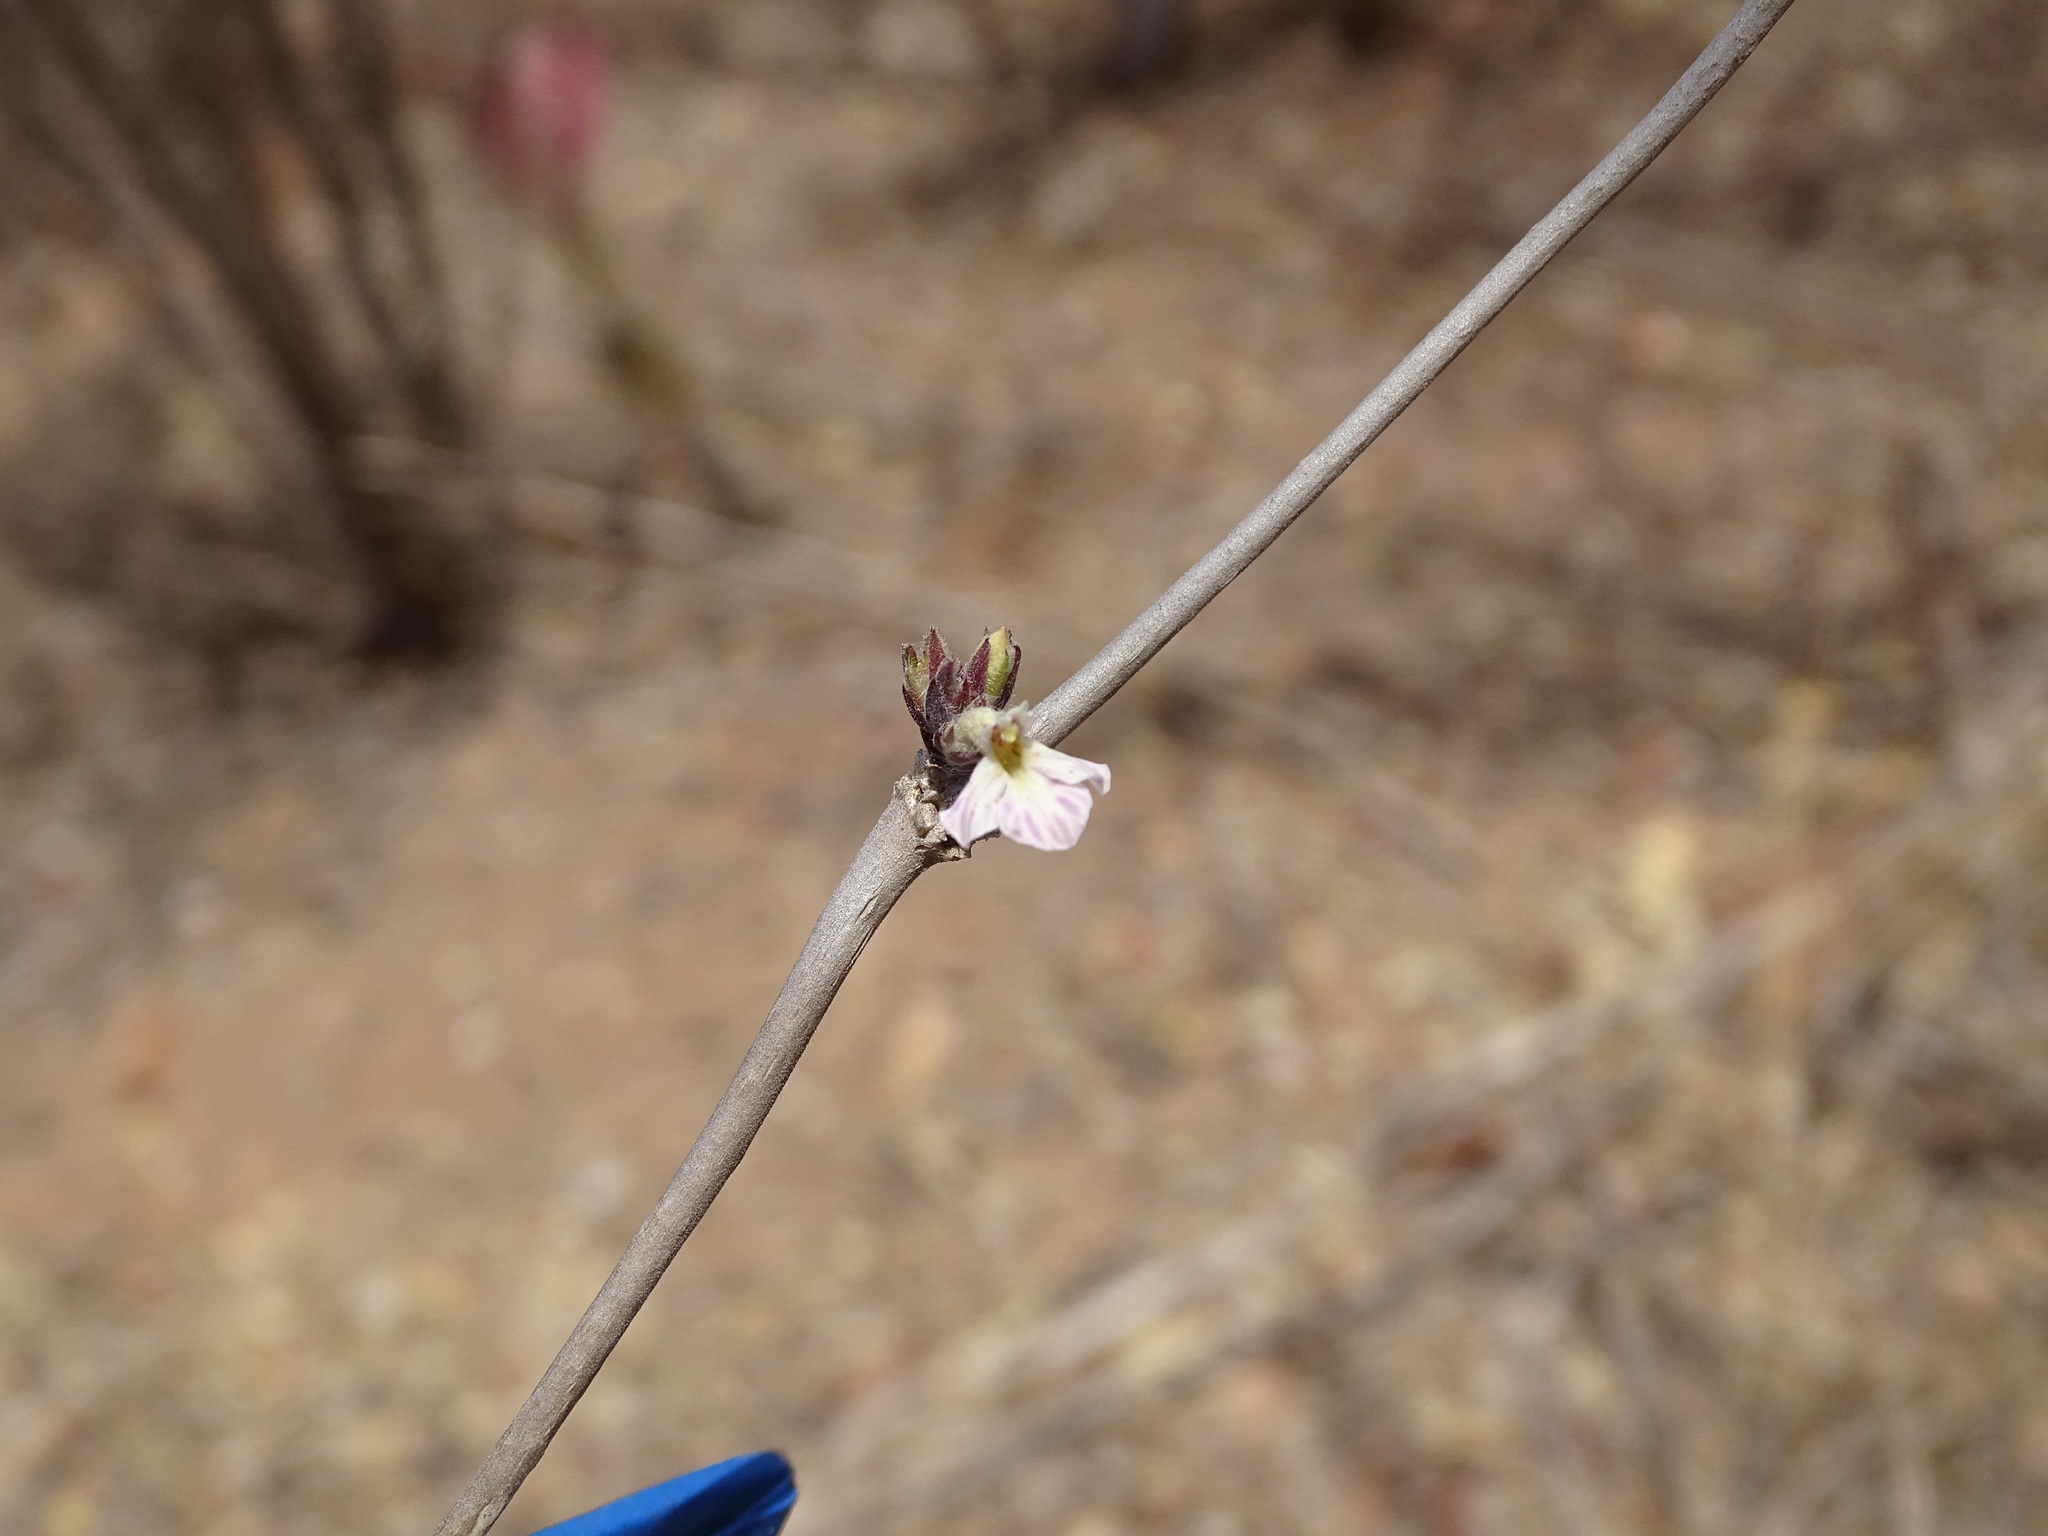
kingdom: Plantae
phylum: Tracheophyta
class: Magnoliopsida
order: Lamiales
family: Acanthaceae
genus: Holographis
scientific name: Holographis pallida
